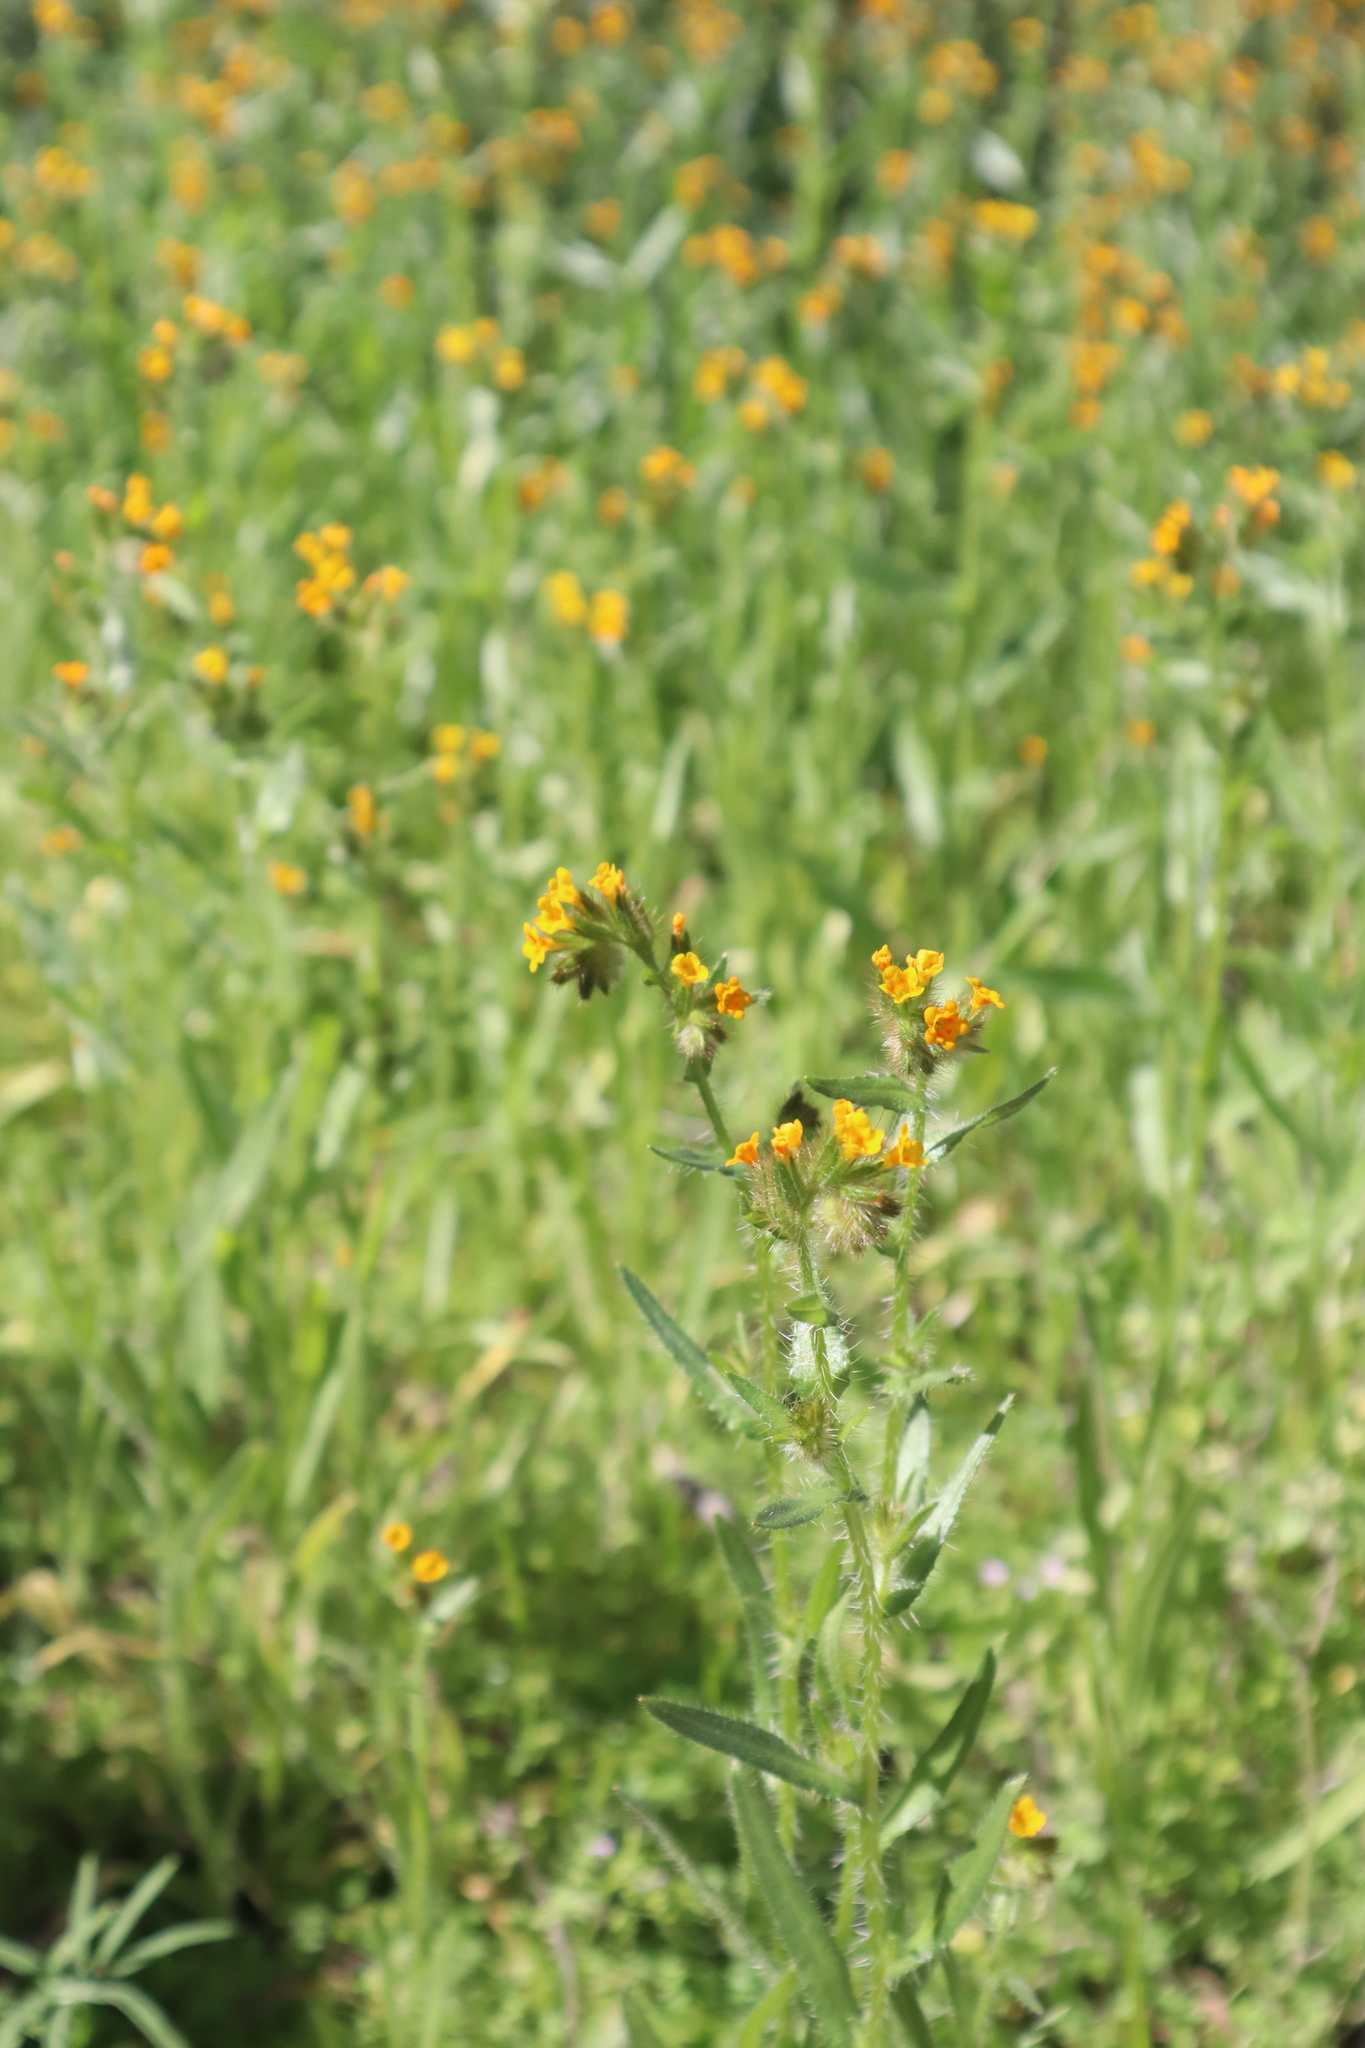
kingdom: Plantae
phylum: Tracheophyta
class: Magnoliopsida
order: Boraginales
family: Boraginaceae
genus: Amsinckia
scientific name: Amsinckia
